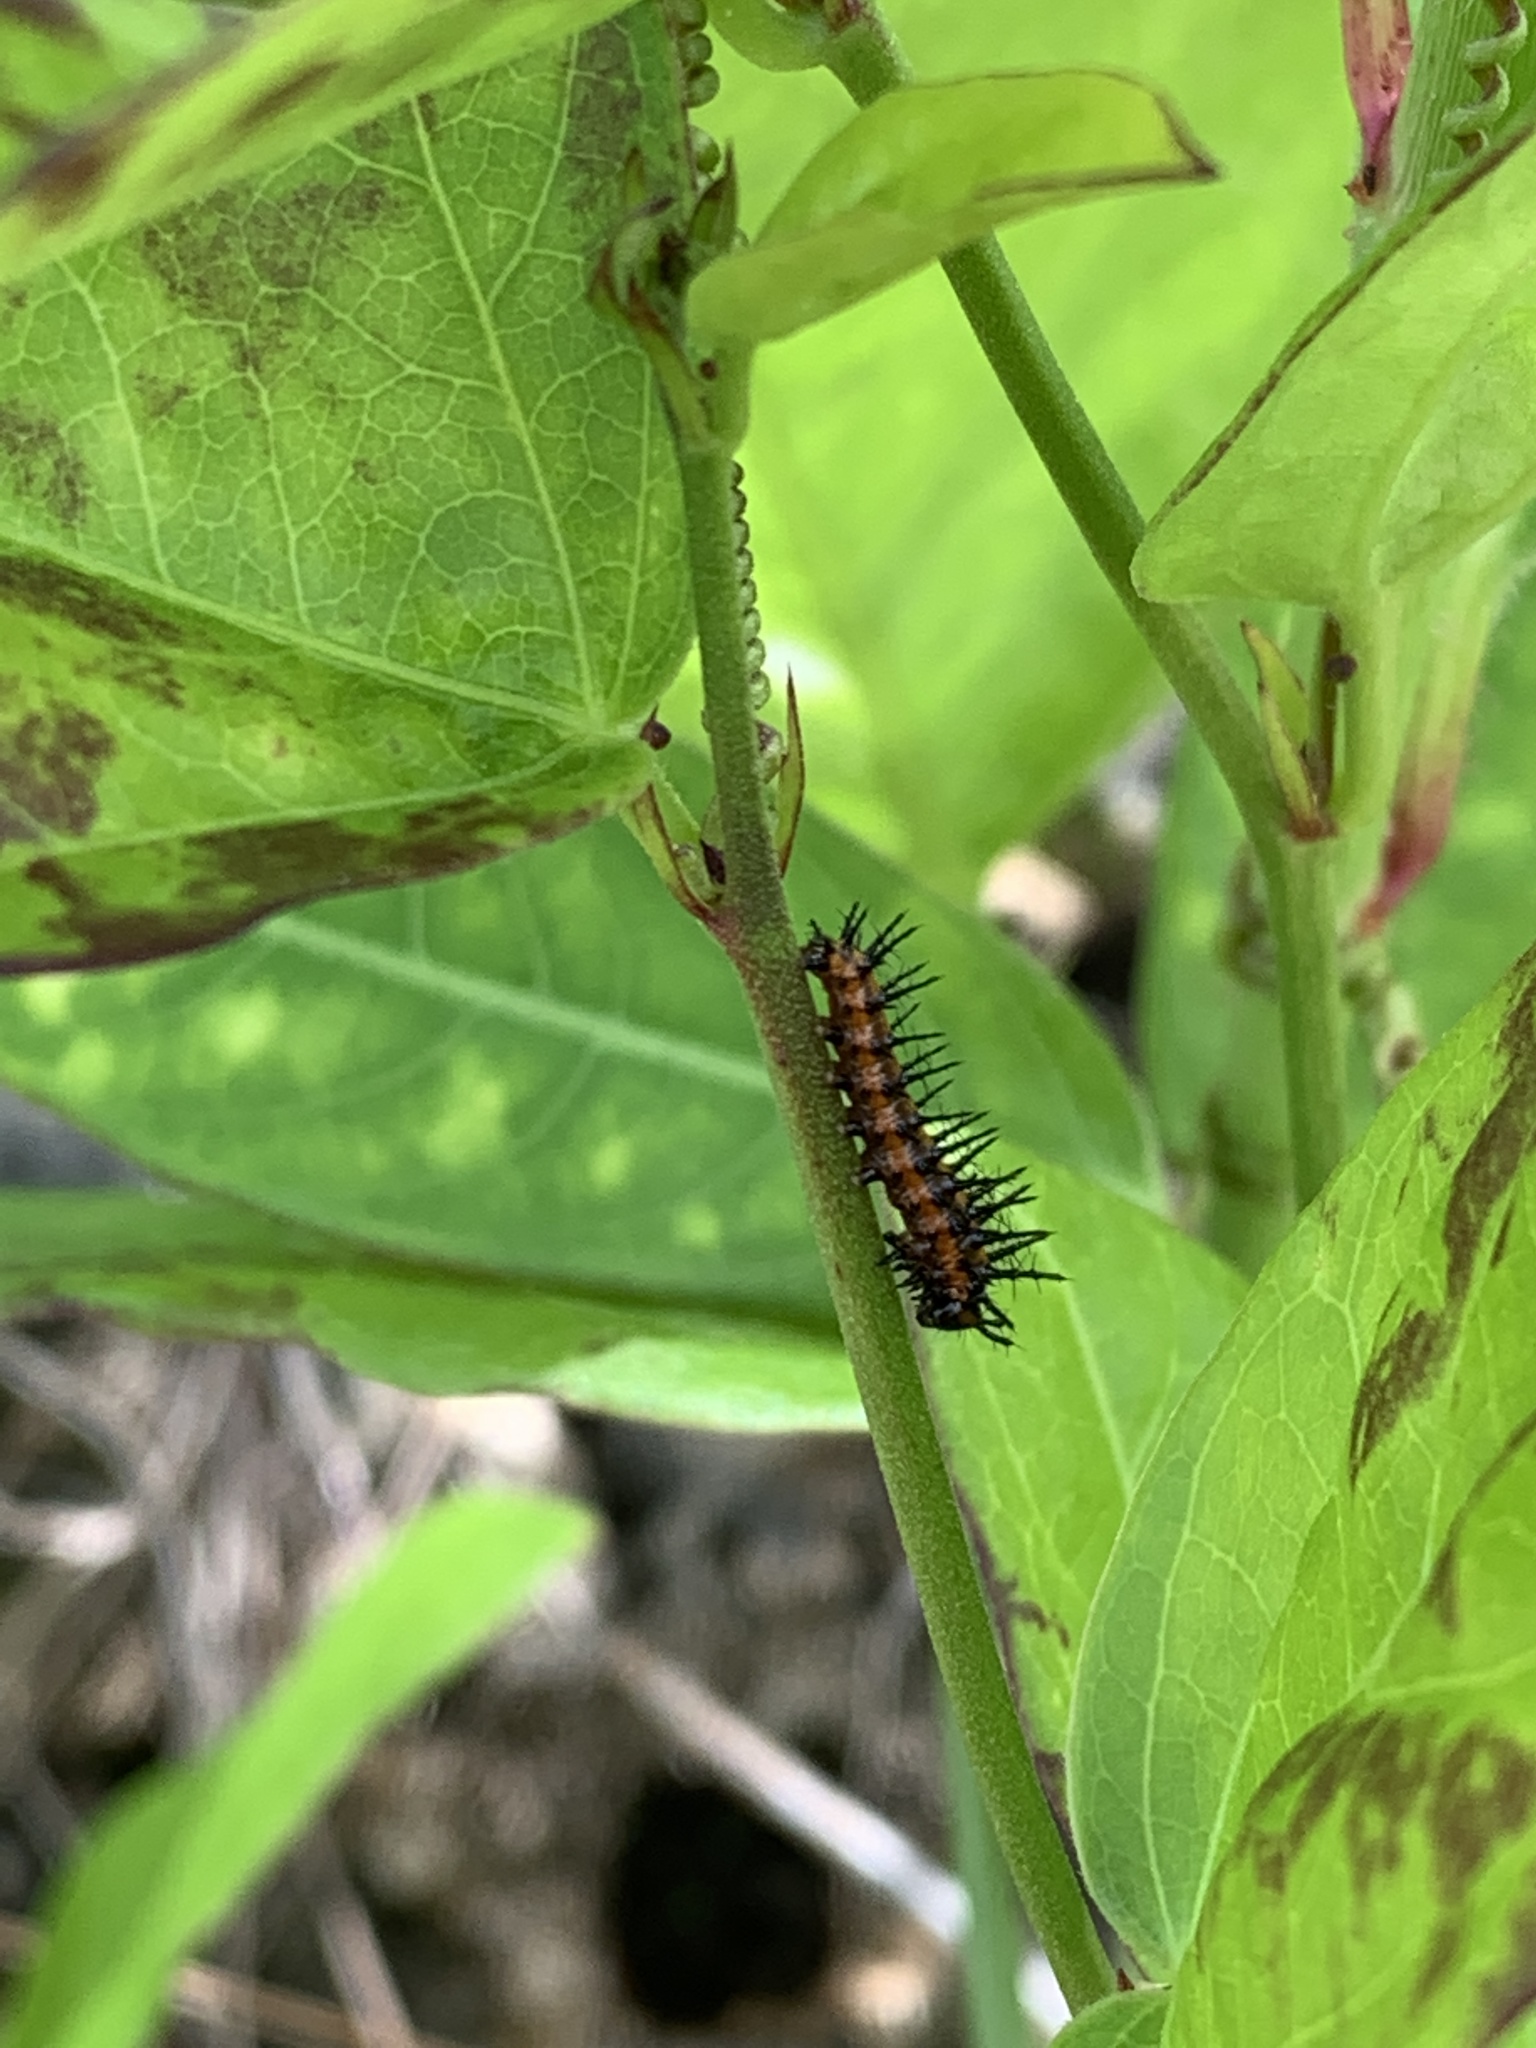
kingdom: Animalia
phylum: Arthropoda
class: Insecta
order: Lepidoptera
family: Nymphalidae
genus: Dione
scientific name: Dione vanillae
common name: Gulf fritillary
